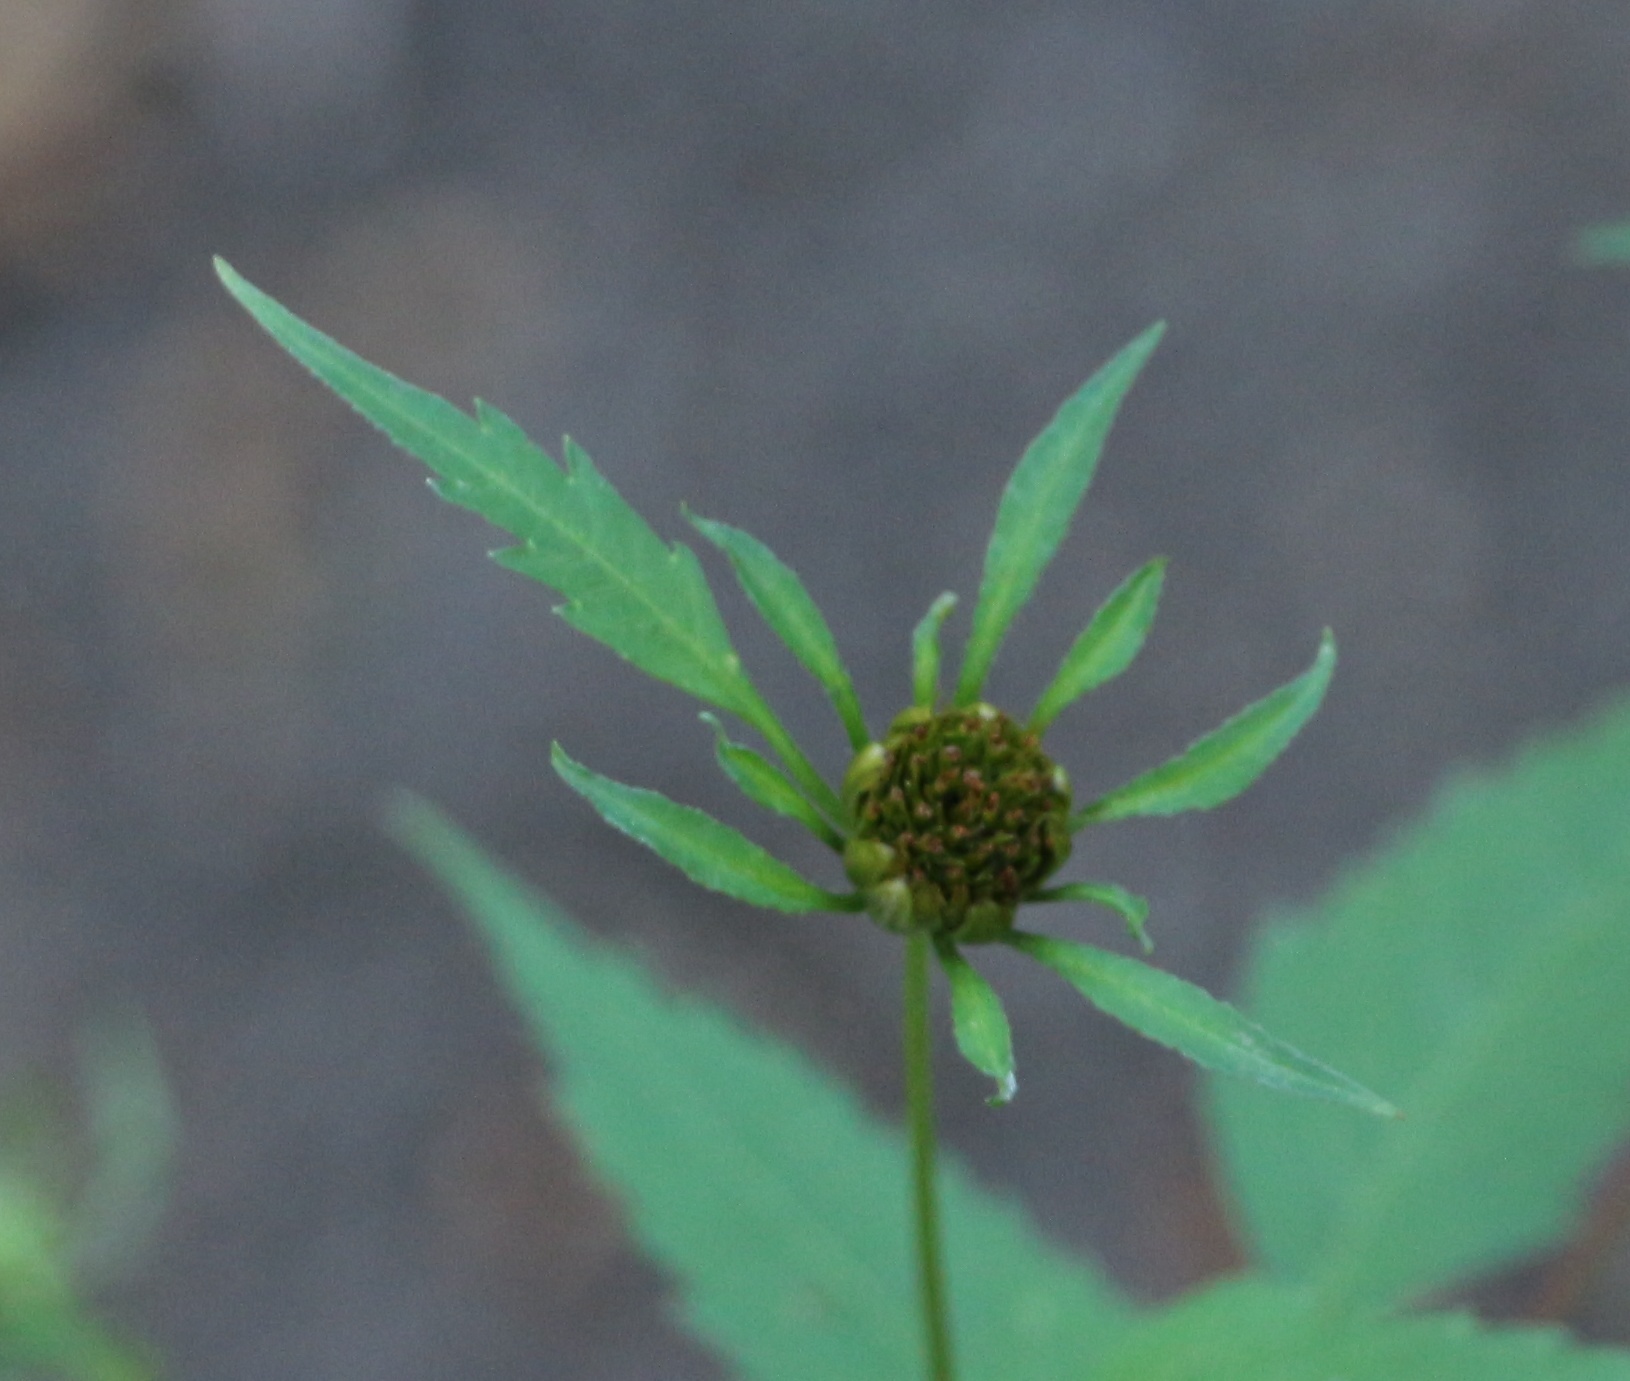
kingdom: Plantae
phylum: Tracheophyta
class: Magnoliopsida
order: Asterales
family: Asteraceae
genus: Bidens
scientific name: Bidens frondosa
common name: Beggarticks
